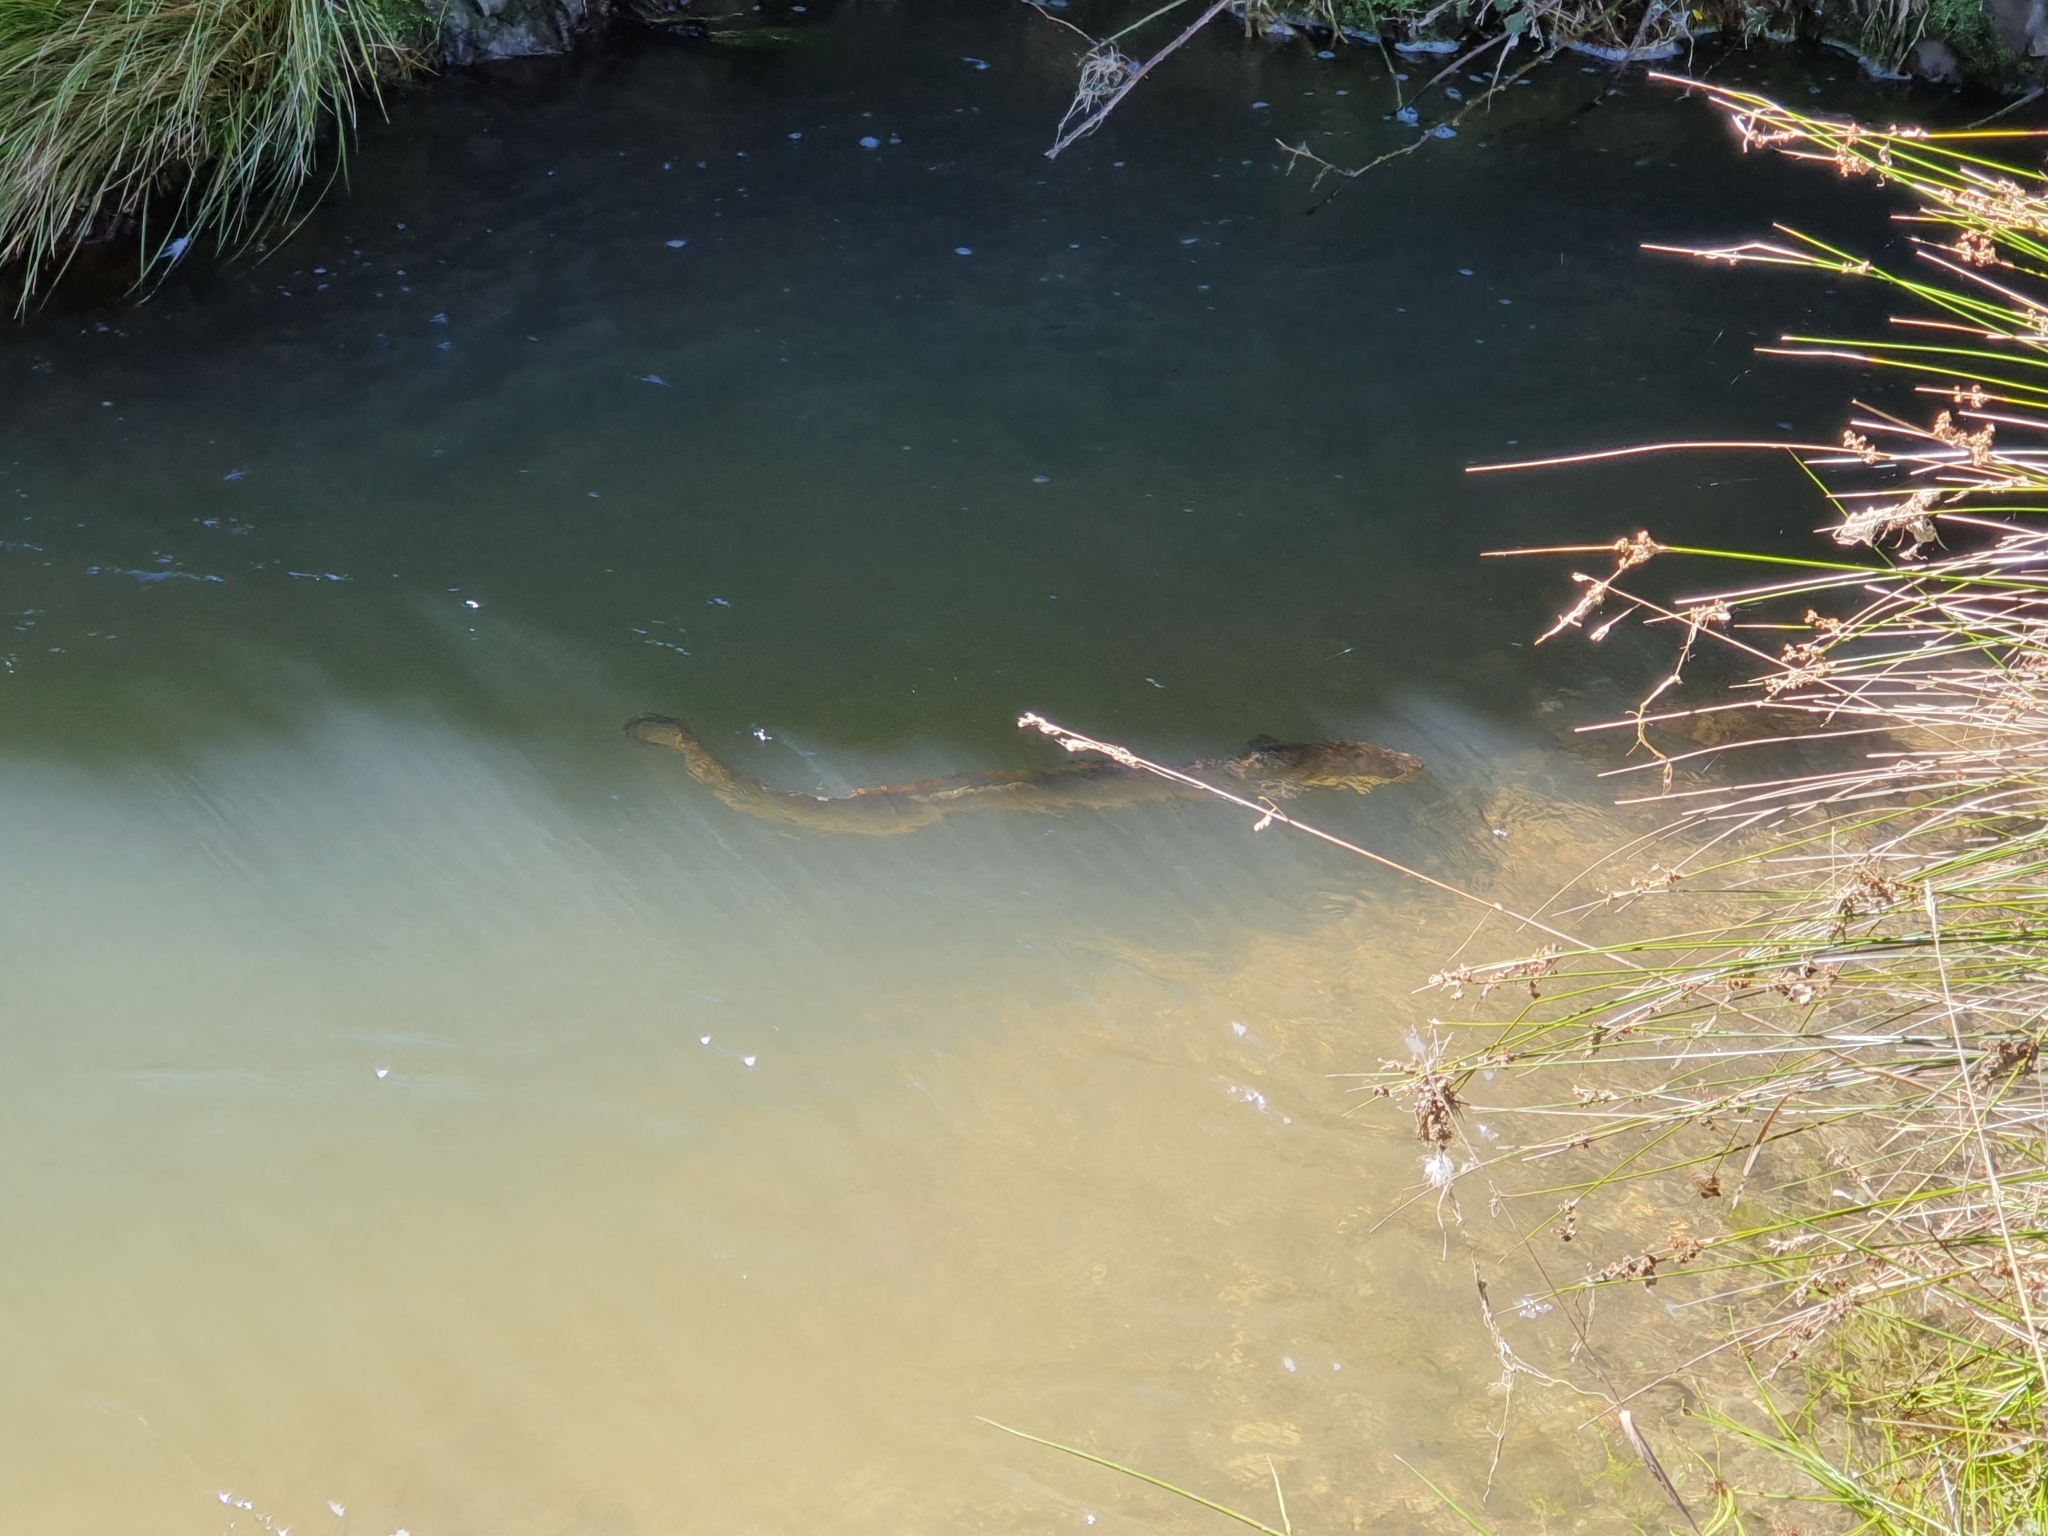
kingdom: Animalia
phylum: Chordata
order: Anguilliformes
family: Anguillidae
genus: Anguilla
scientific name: Anguilla dieffenbachii
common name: New zealand longfin eel
